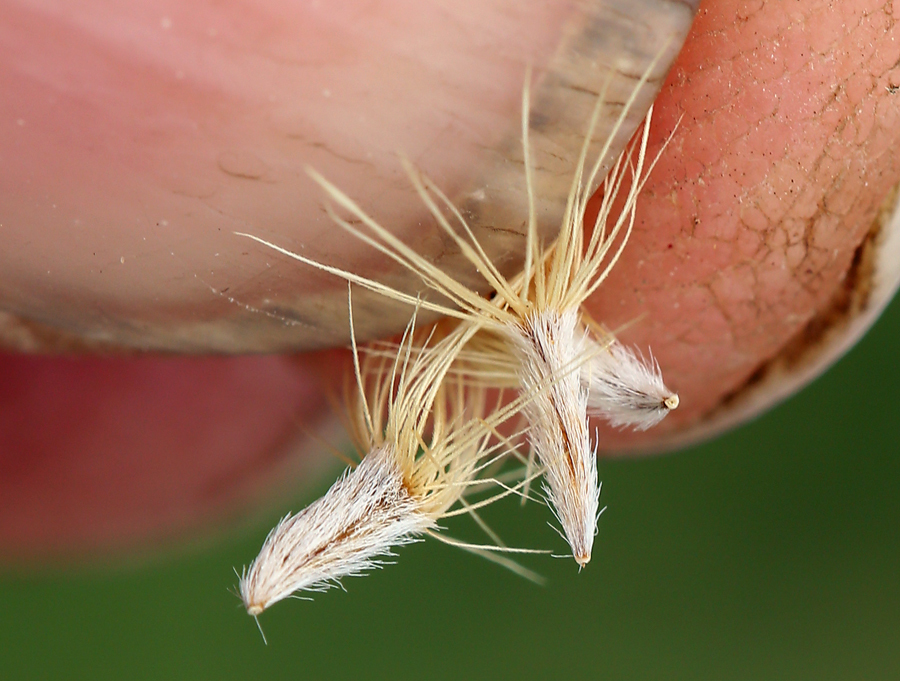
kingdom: Plantae
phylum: Tracheophyta
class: Magnoliopsida
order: Asterales
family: Asteraceae
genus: Isocoma
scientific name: Isocoma menziesii
